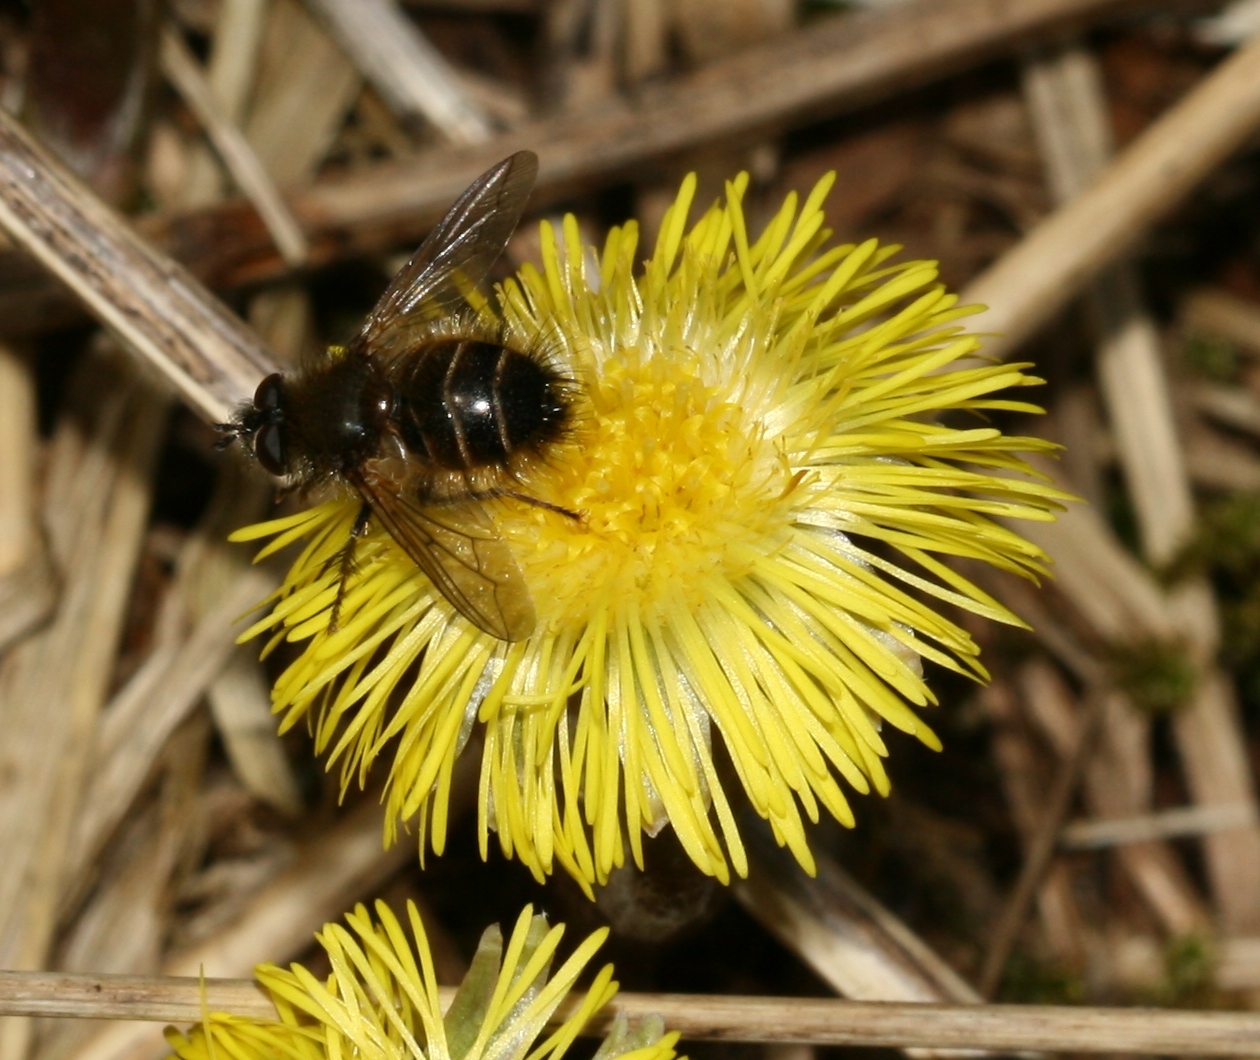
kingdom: Animalia
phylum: Arthropoda
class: Insecta
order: Diptera
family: Tachinidae
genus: Tachina
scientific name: Tachina ursina
